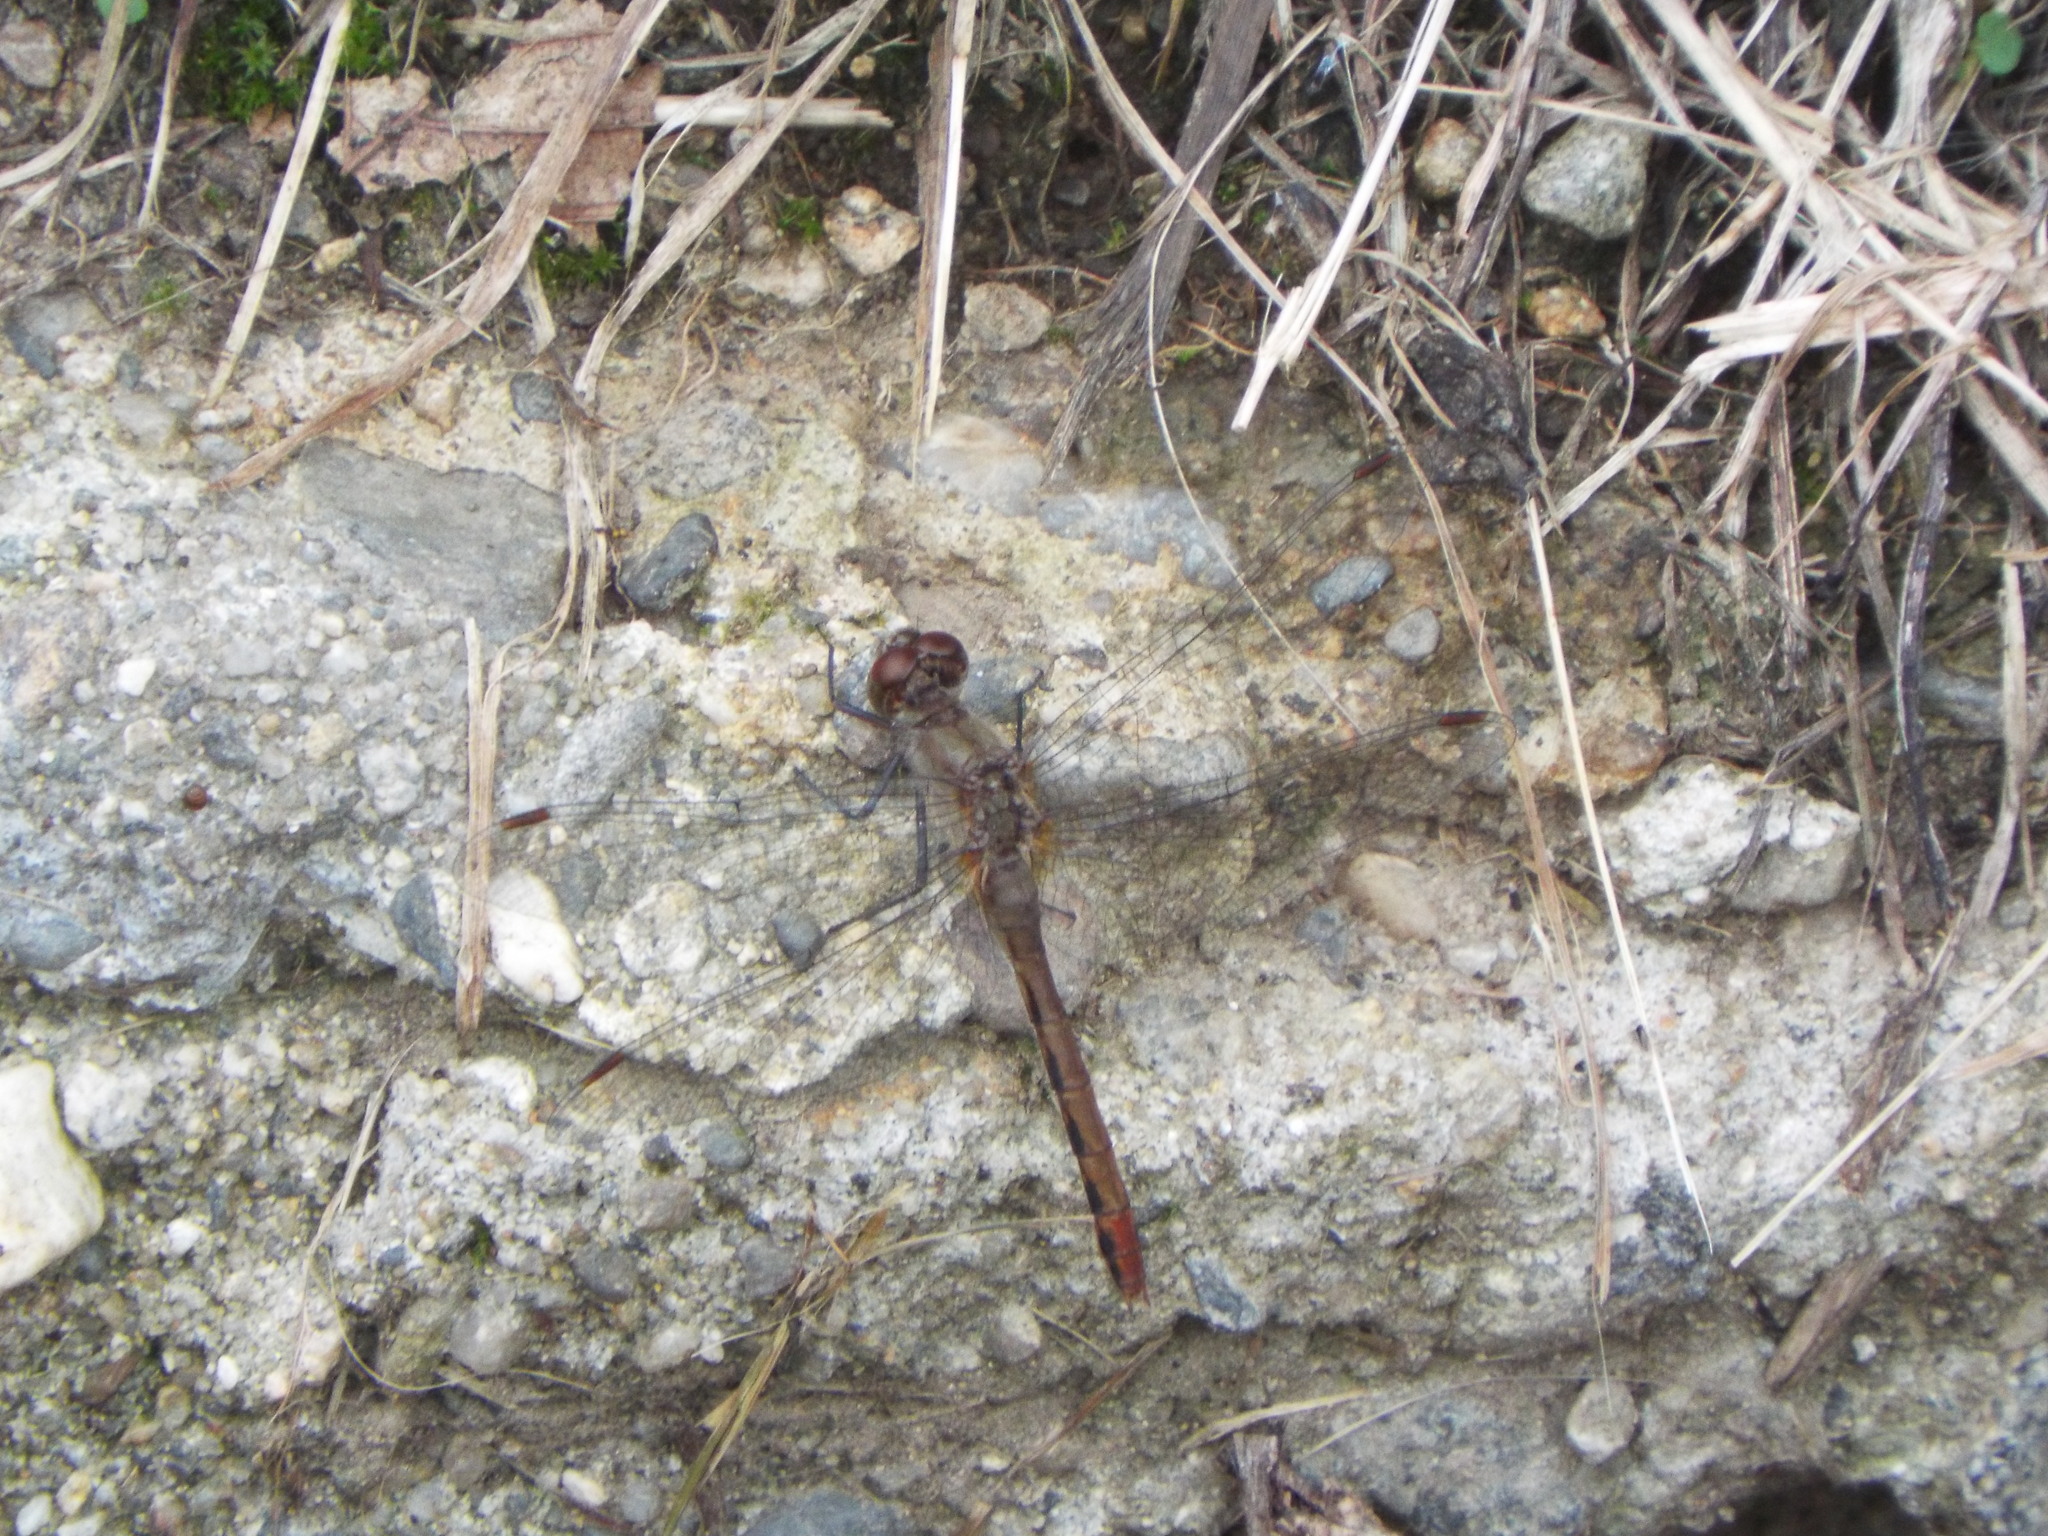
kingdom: Animalia
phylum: Arthropoda
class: Insecta
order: Odonata
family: Libellulidae
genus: Sympetrum
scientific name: Sympetrum
